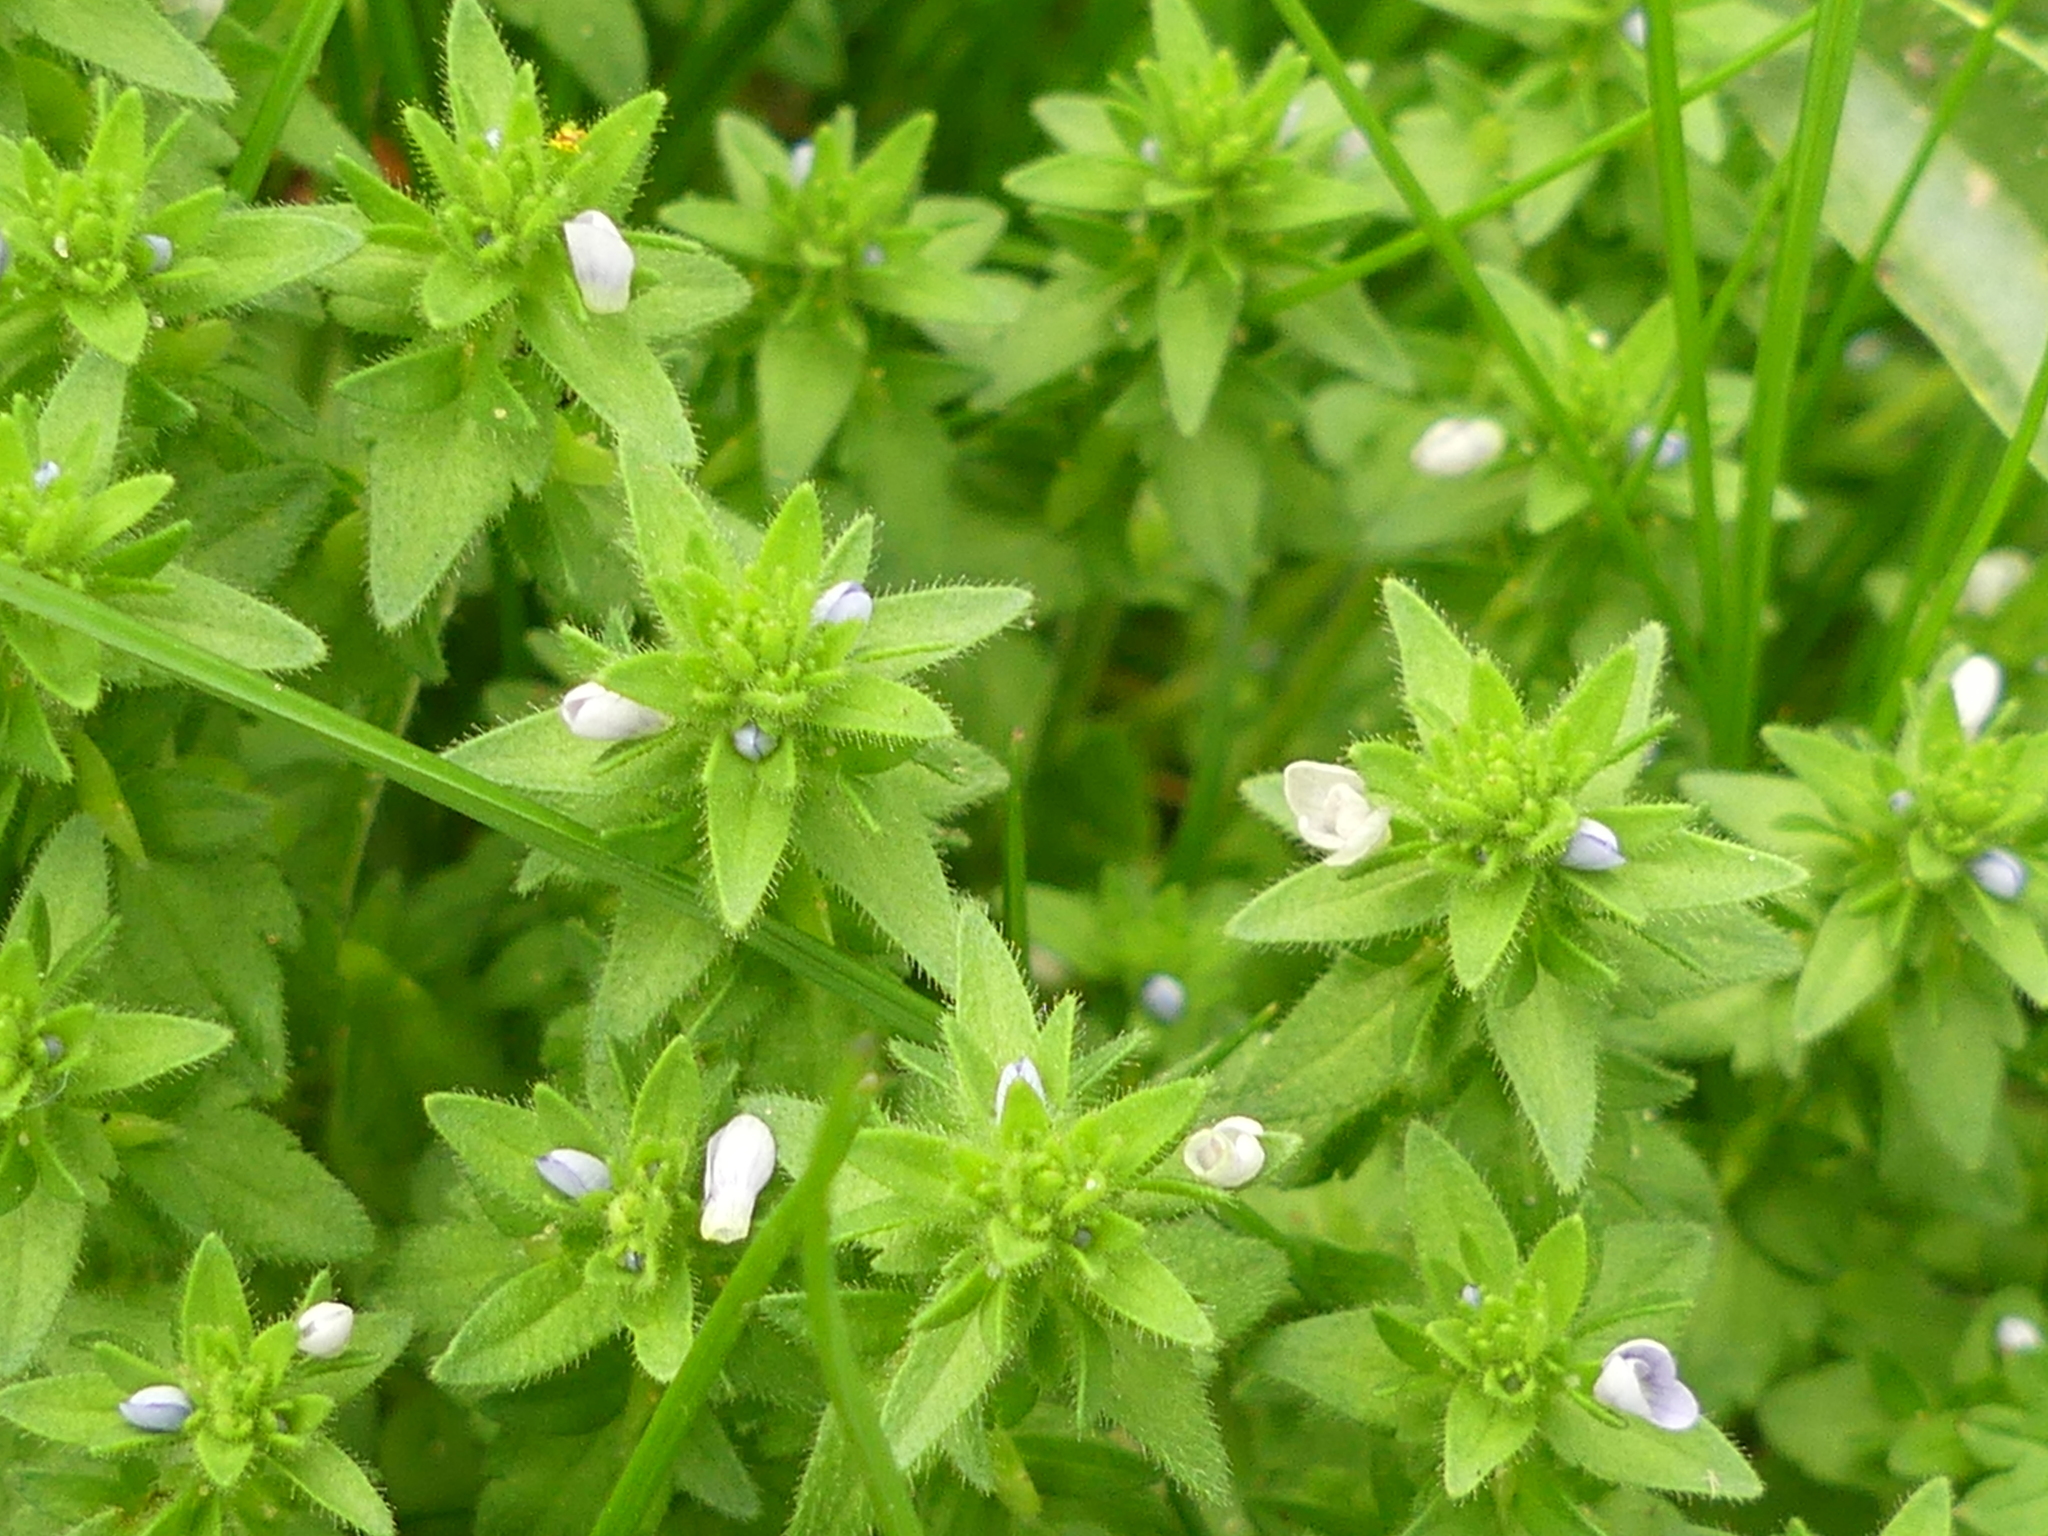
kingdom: Plantae
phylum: Tracheophyta
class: Magnoliopsida
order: Lamiales
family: Plantaginaceae
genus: Veronica
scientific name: Veronica arvensis
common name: Corn speedwell
